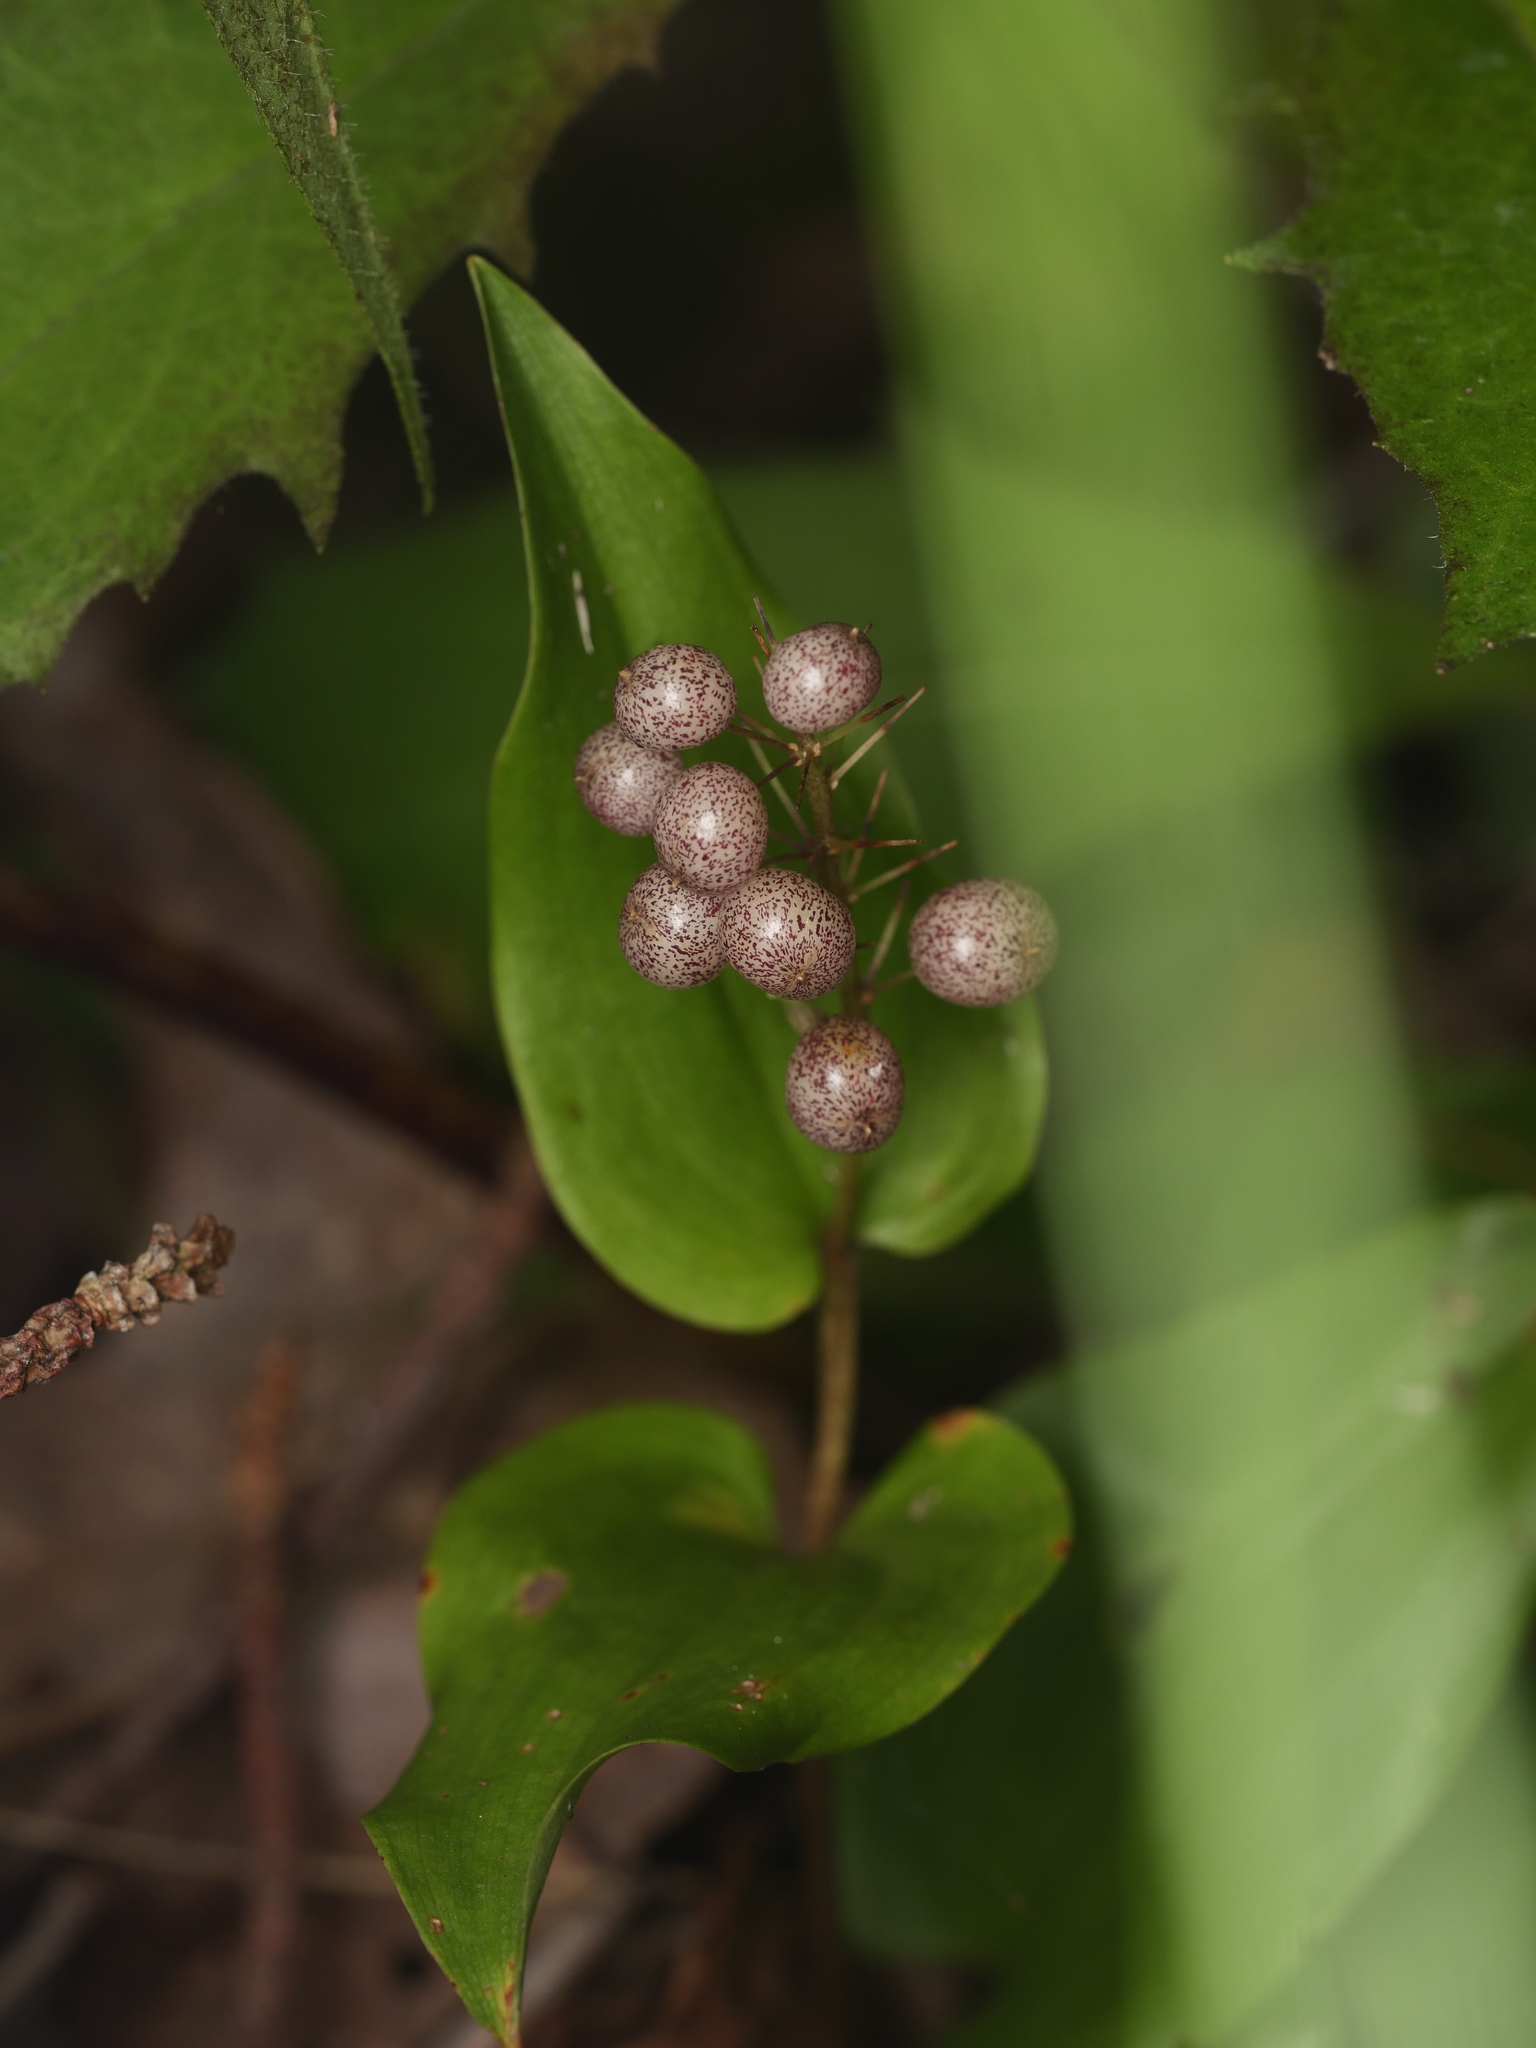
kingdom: Plantae
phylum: Tracheophyta
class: Liliopsida
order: Asparagales
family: Asparagaceae
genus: Maianthemum
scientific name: Maianthemum canadense
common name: False lily-of-the-valley
